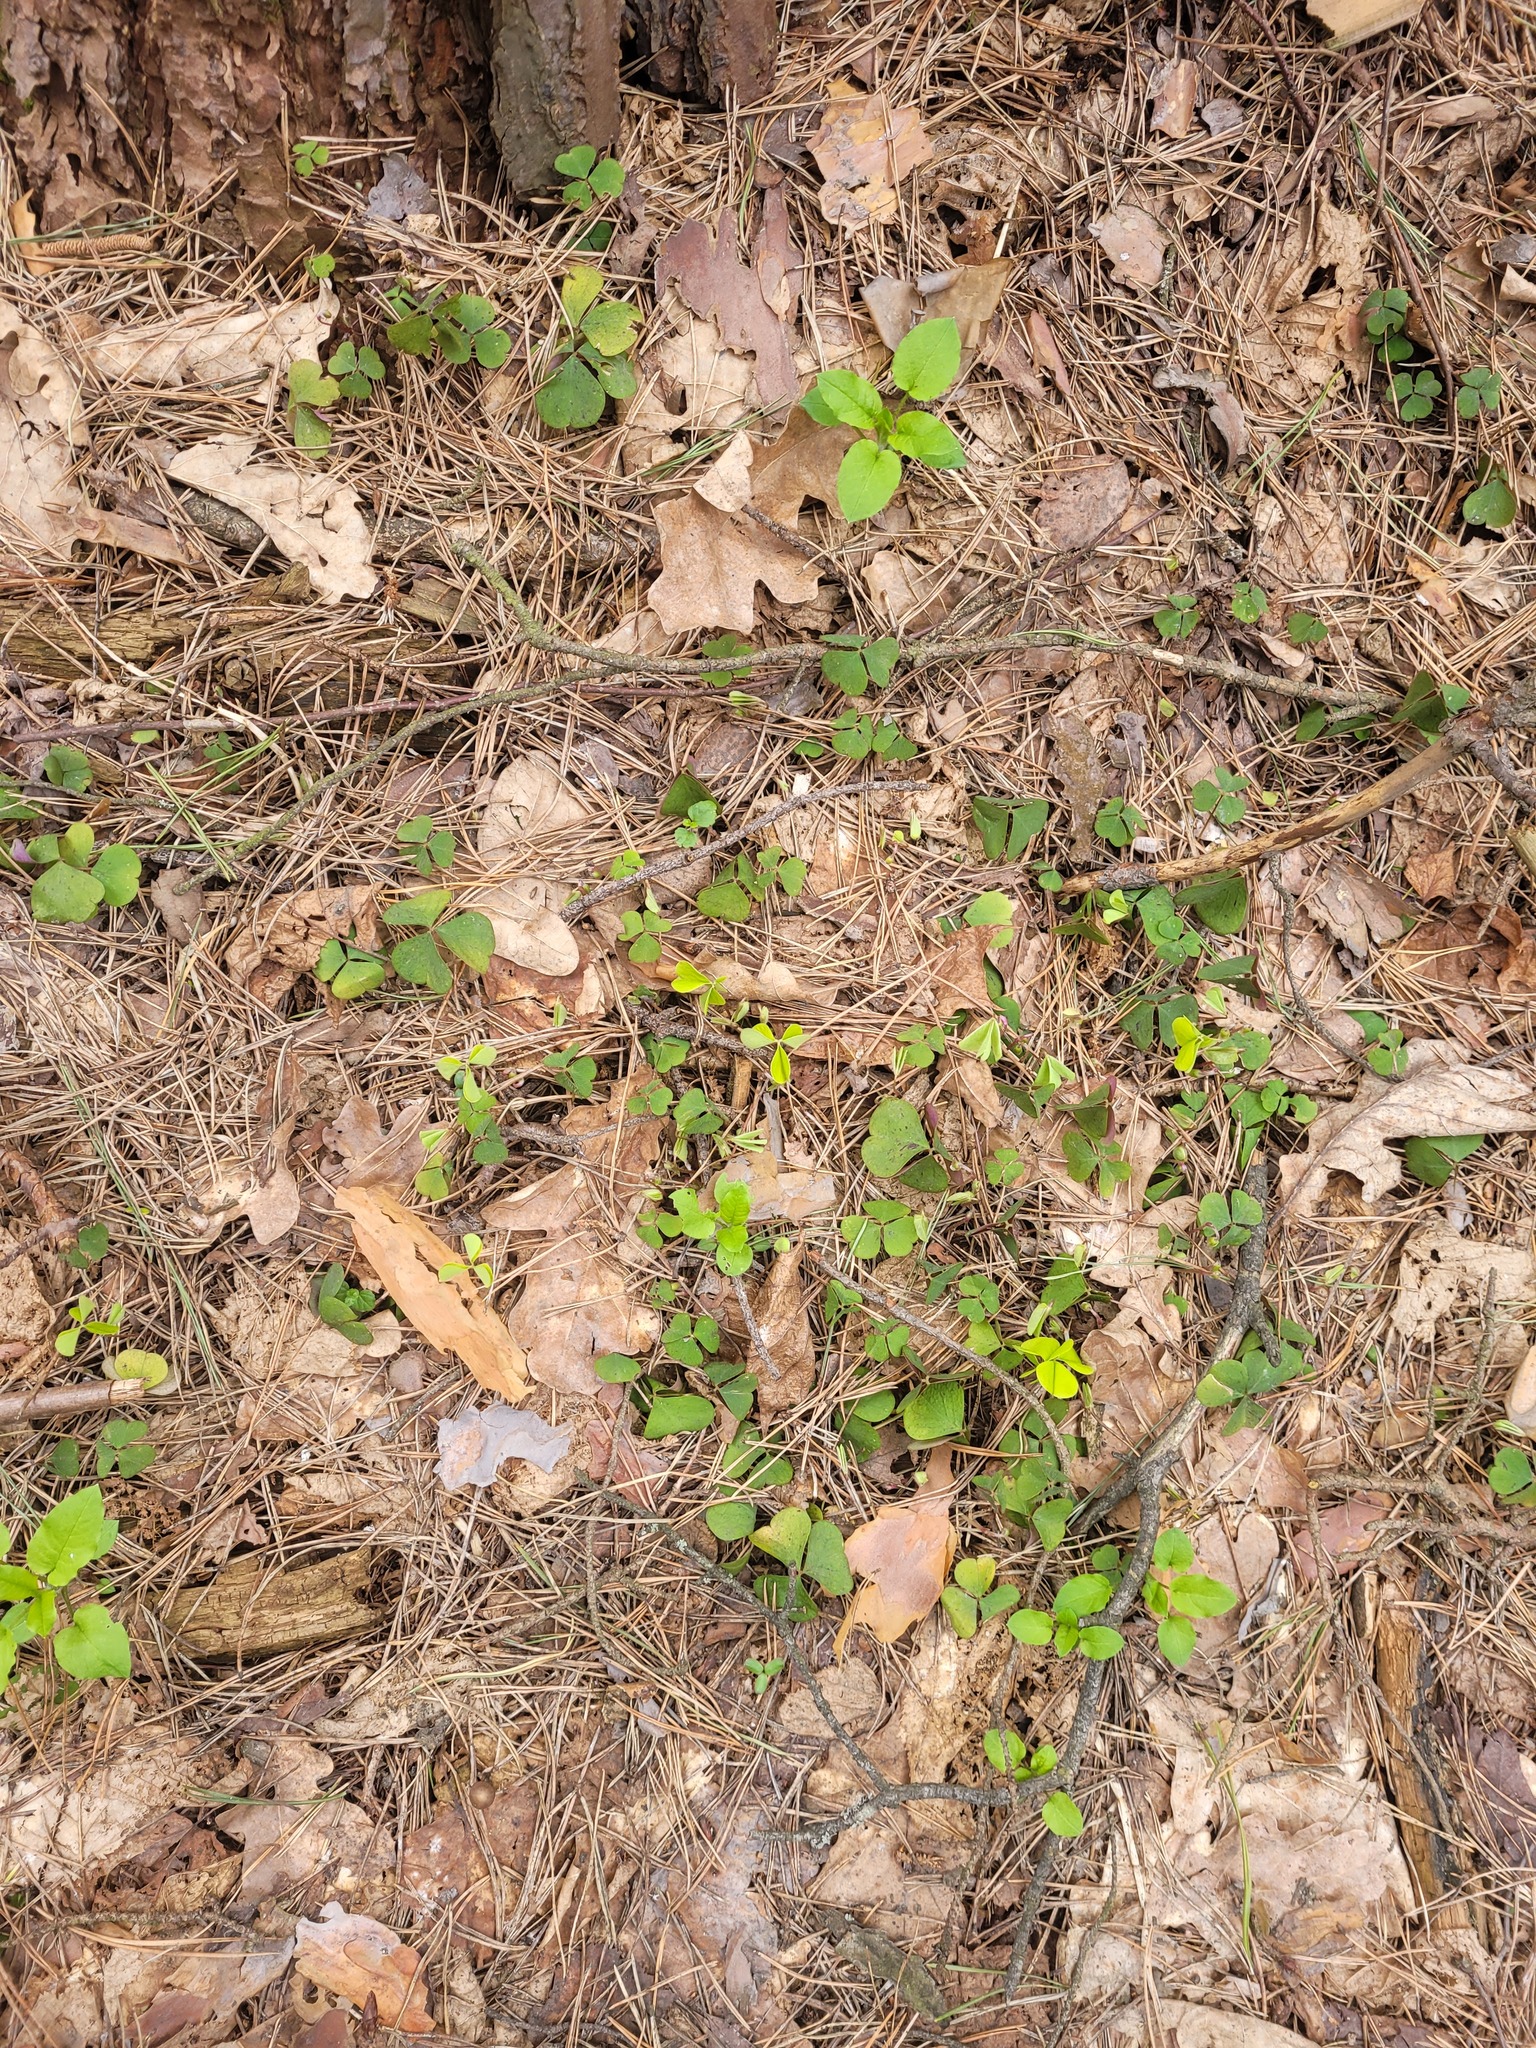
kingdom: Plantae
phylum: Tracheophyta
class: Magnoliopsida
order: Oxalidales
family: Oxalidaceae
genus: Oxalis
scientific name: Oxalis acetosella
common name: Wood-sorrel
